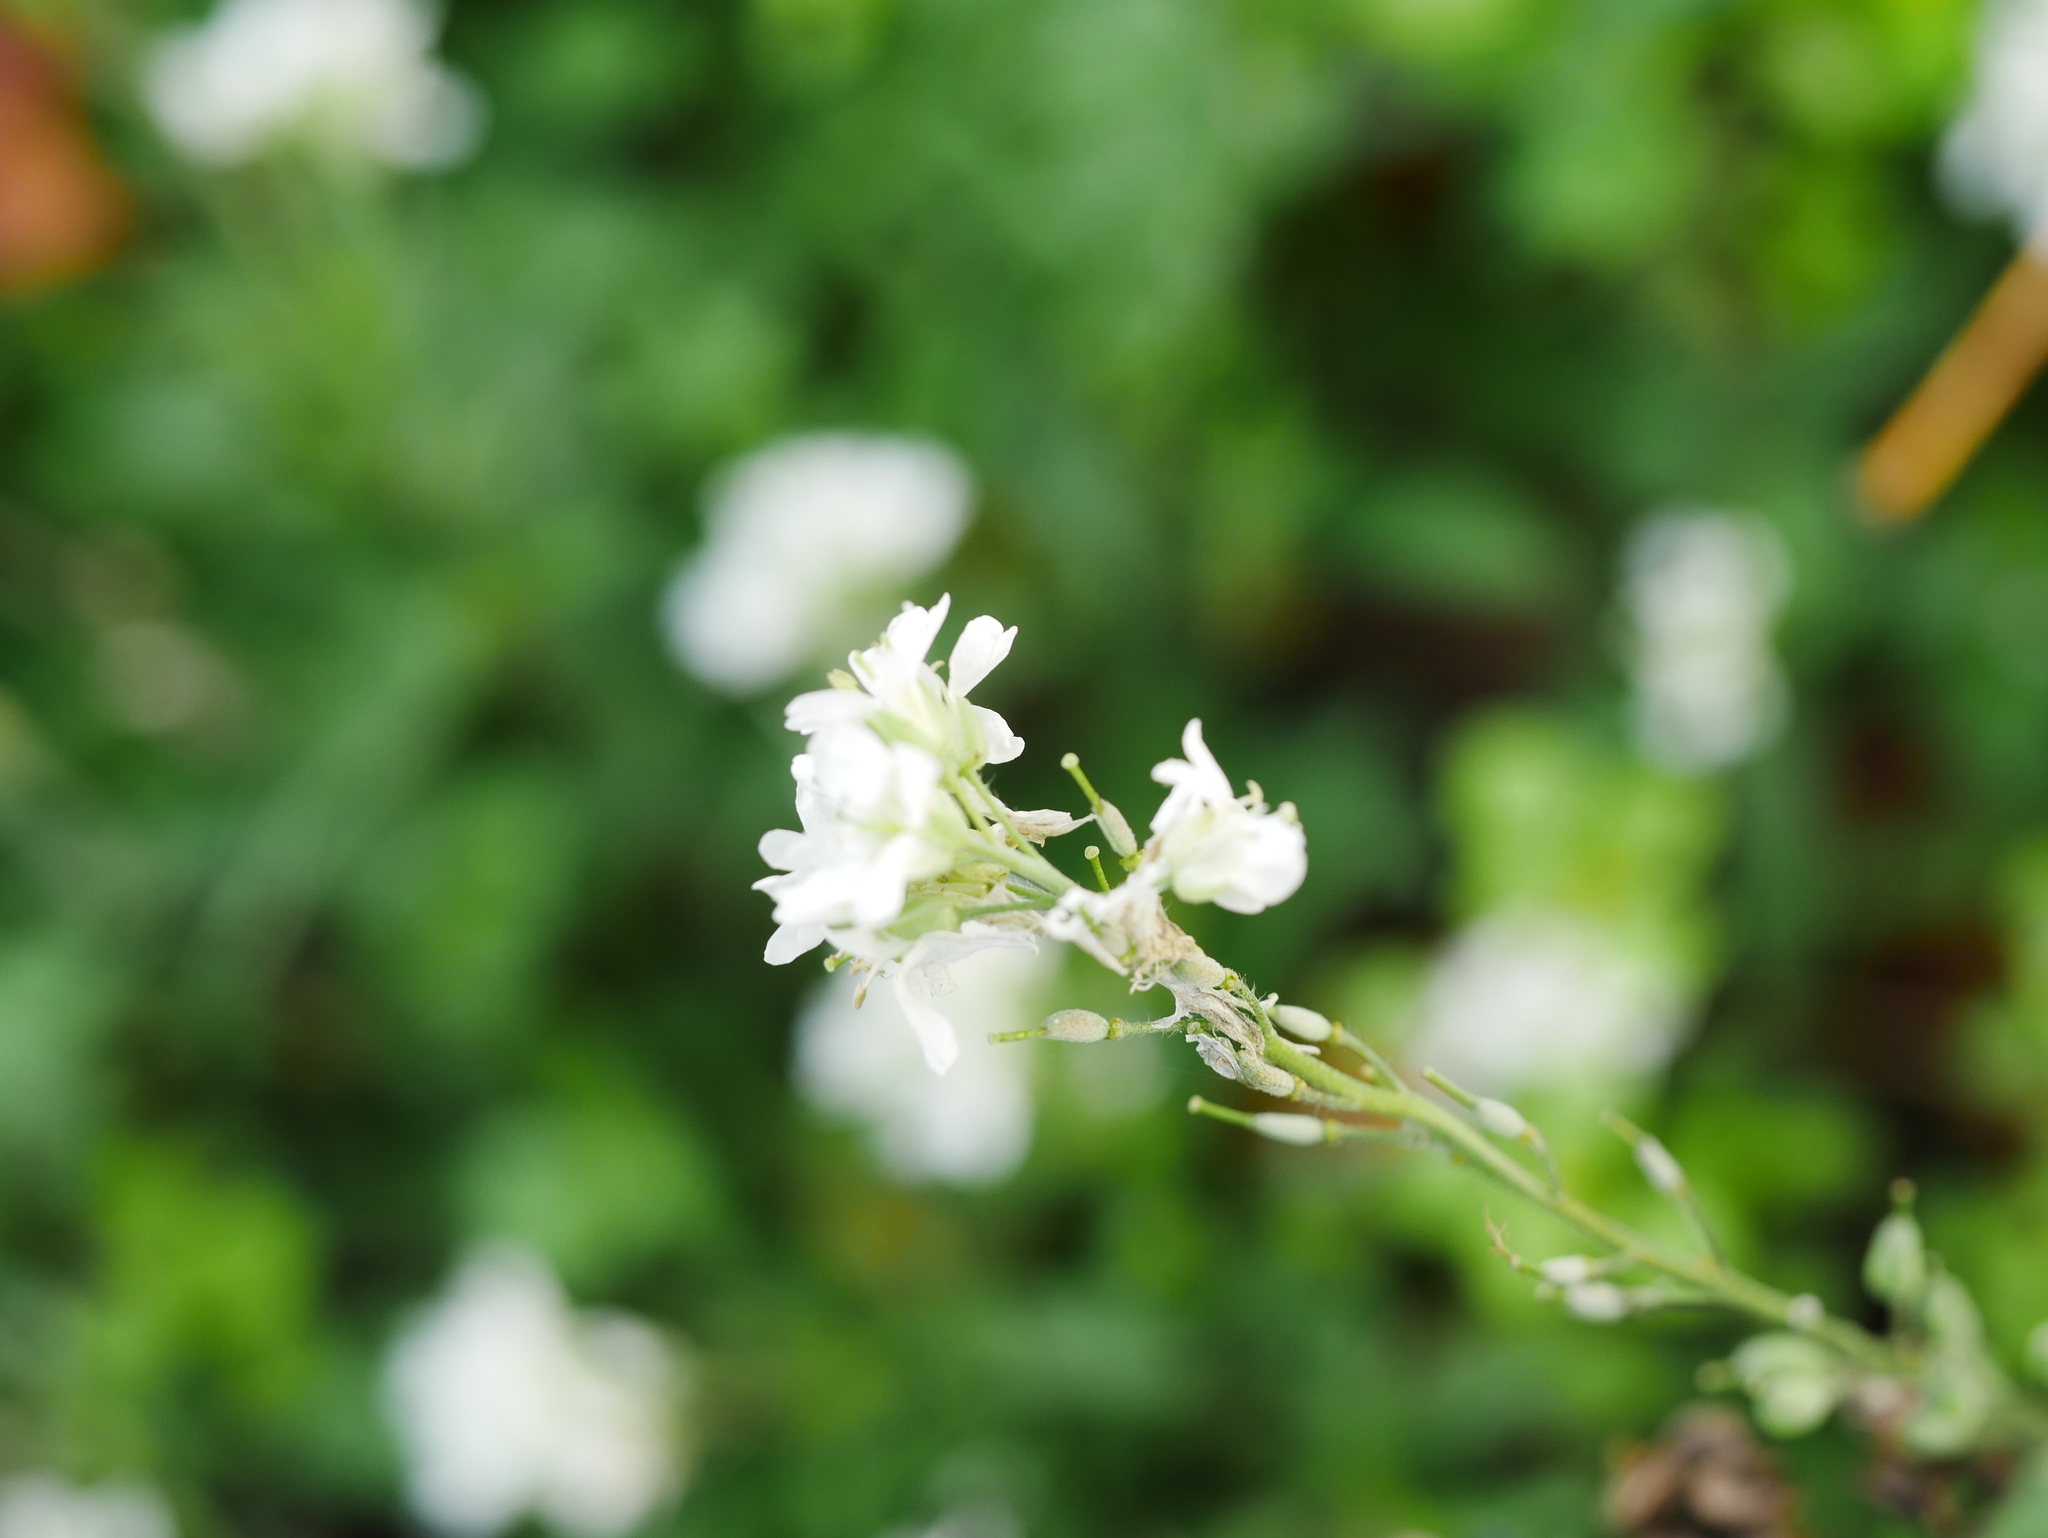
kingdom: Plantae
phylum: Tracheophyta
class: Magnoliopsida
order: Brassicales
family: Brassicaceae
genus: Berteroa
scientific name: Berteroa incana
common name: Hoary alison
